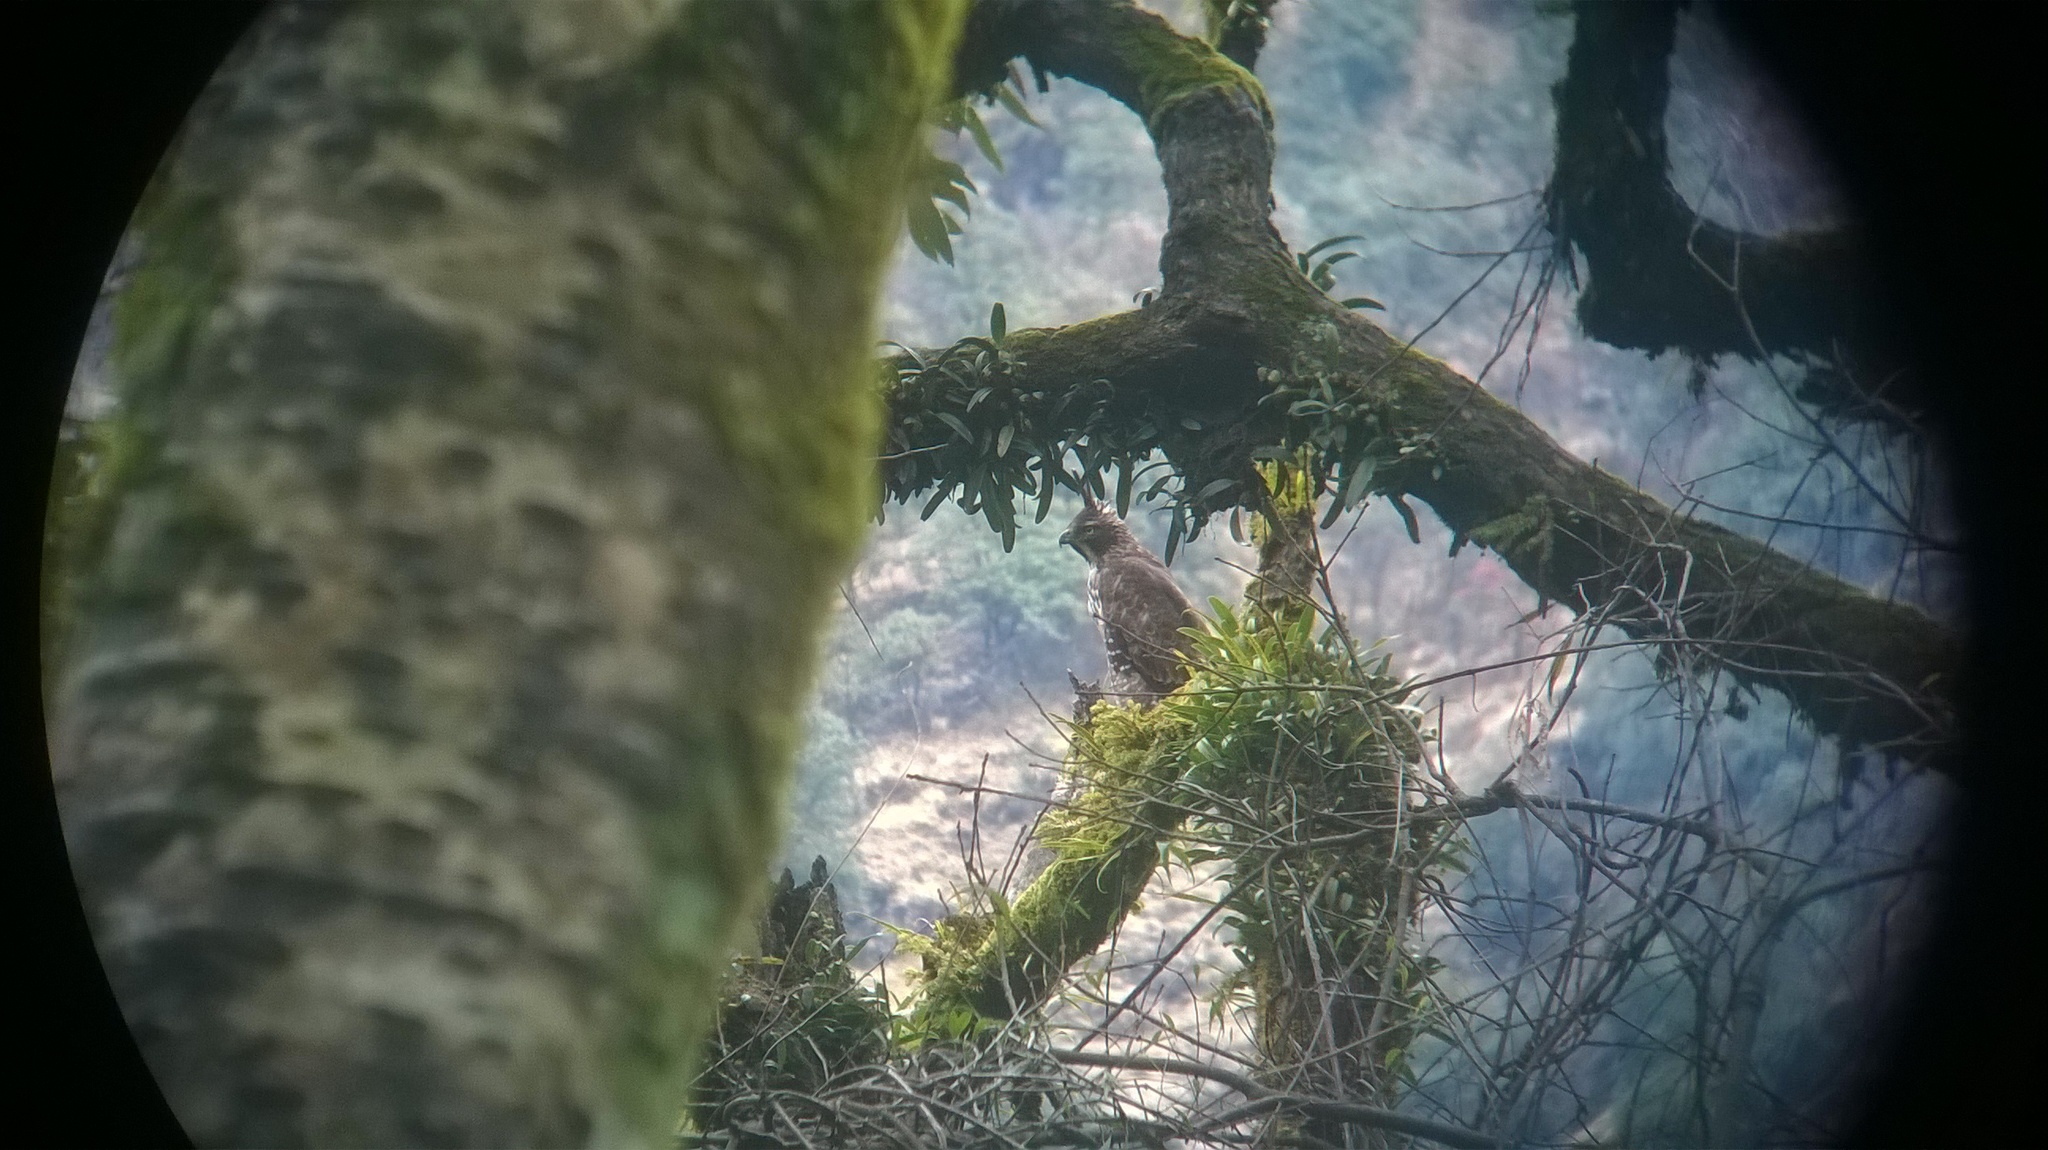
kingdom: Animalia
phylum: Chordata
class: Aves
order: Accipitriformes
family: Accipitridae
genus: Nisaetus
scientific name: Nisaetus nipalensis
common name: Mountain hawk-eagle
